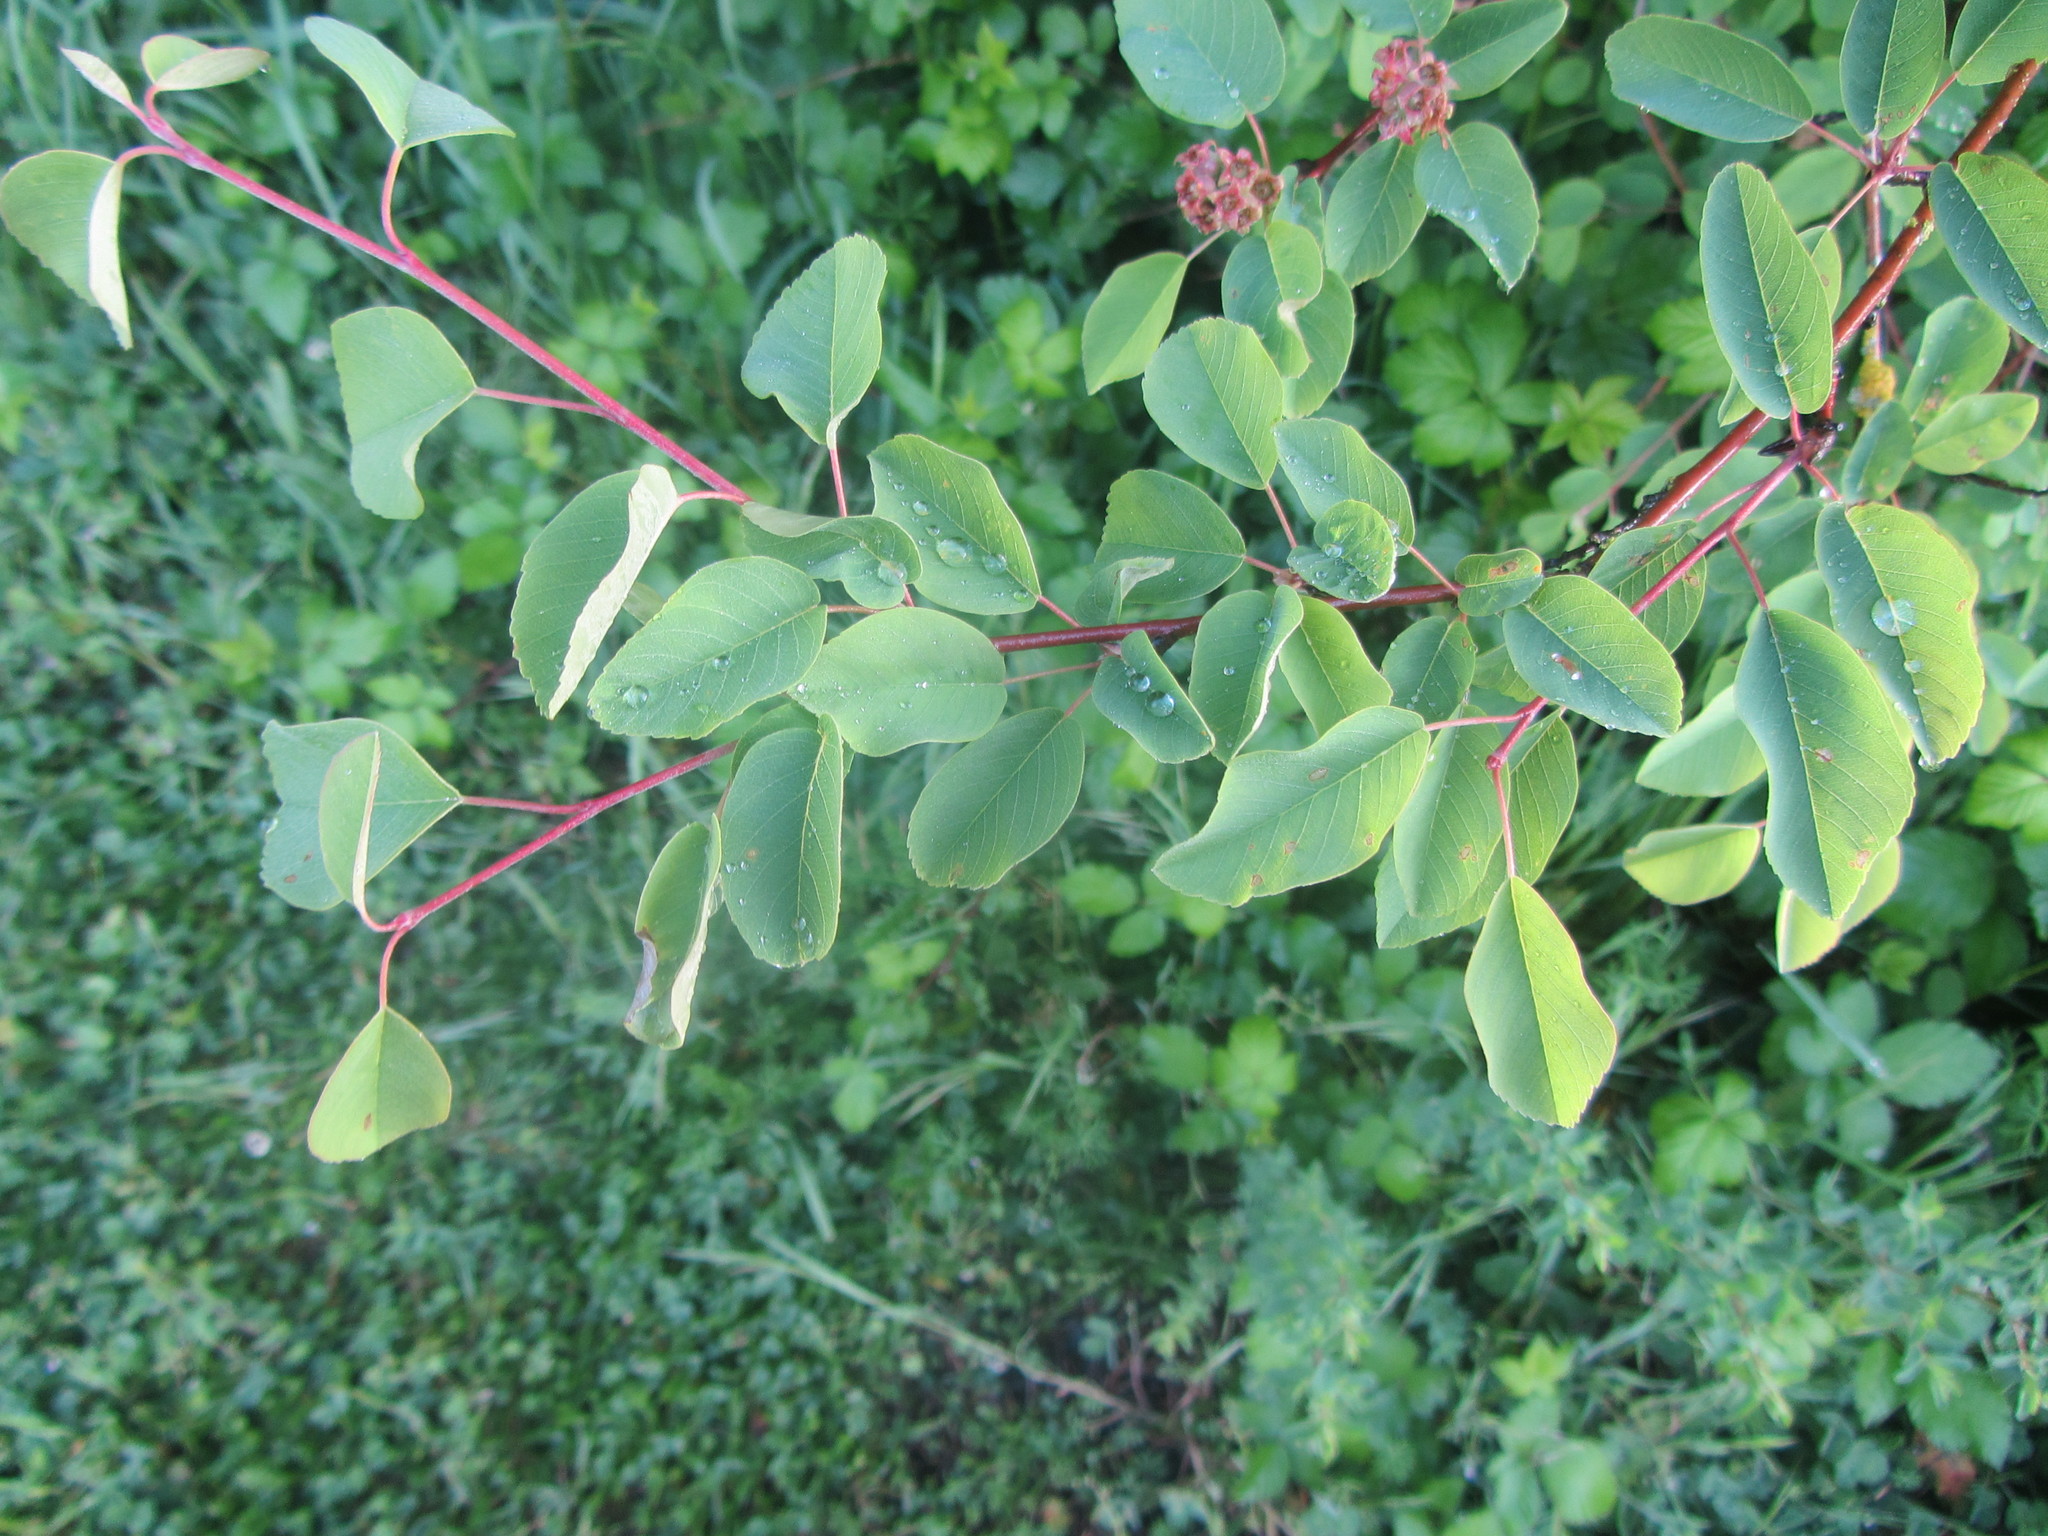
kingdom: Plantae
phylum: Tracheophyta
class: Magnoliopsida
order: Rosales
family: Rosaceae
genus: Amelanchier
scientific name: Amelanchier alnifolia
